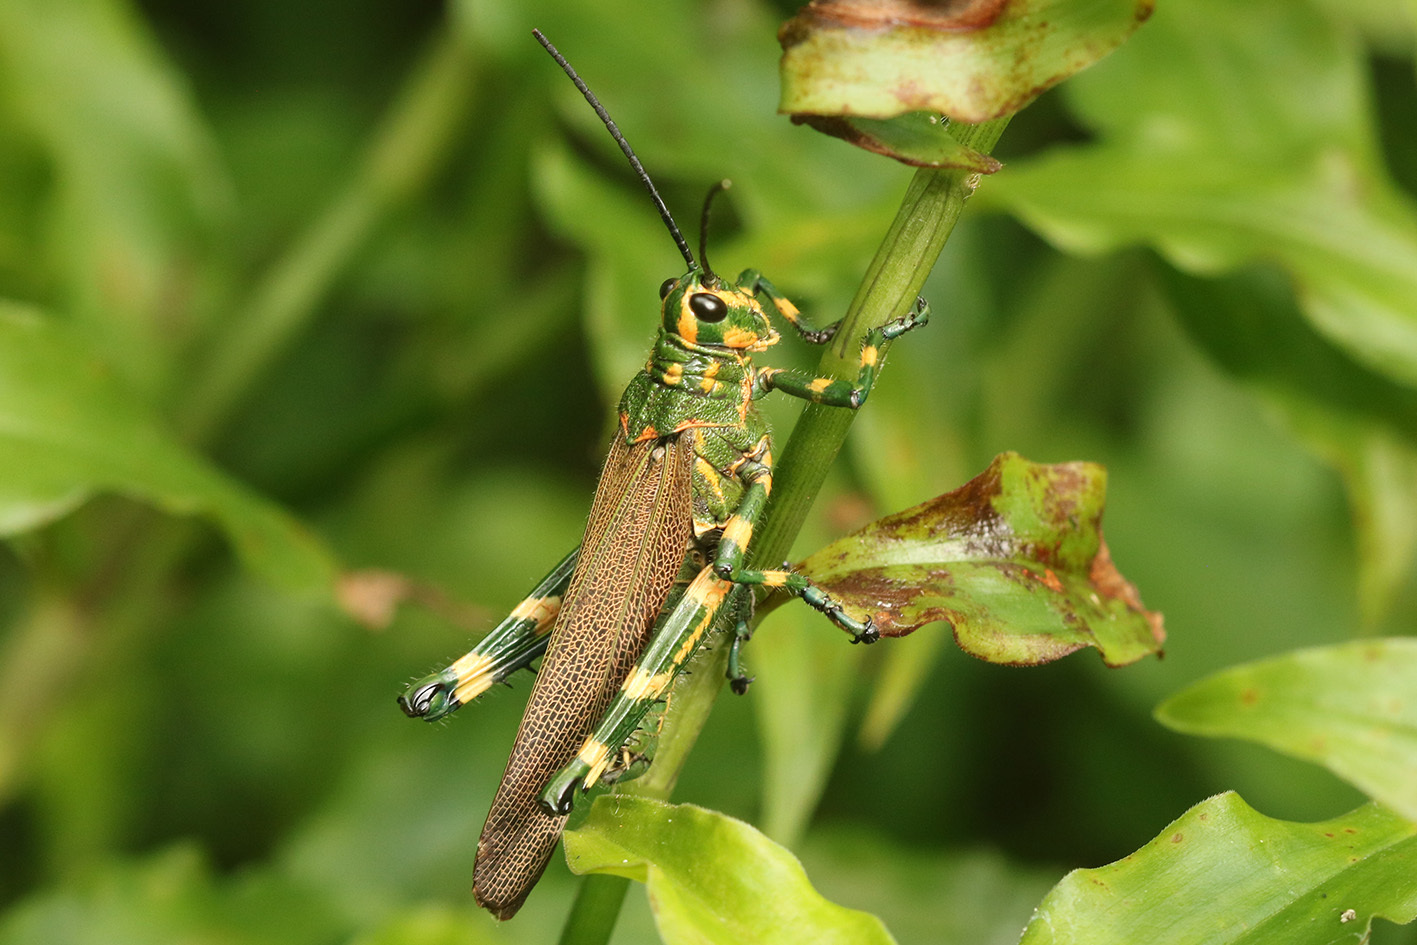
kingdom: Animalia
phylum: Arthropoda
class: Insecta
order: Orthoptera
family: Romaleidae
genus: Chromacris
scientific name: Chromacris speciosa
